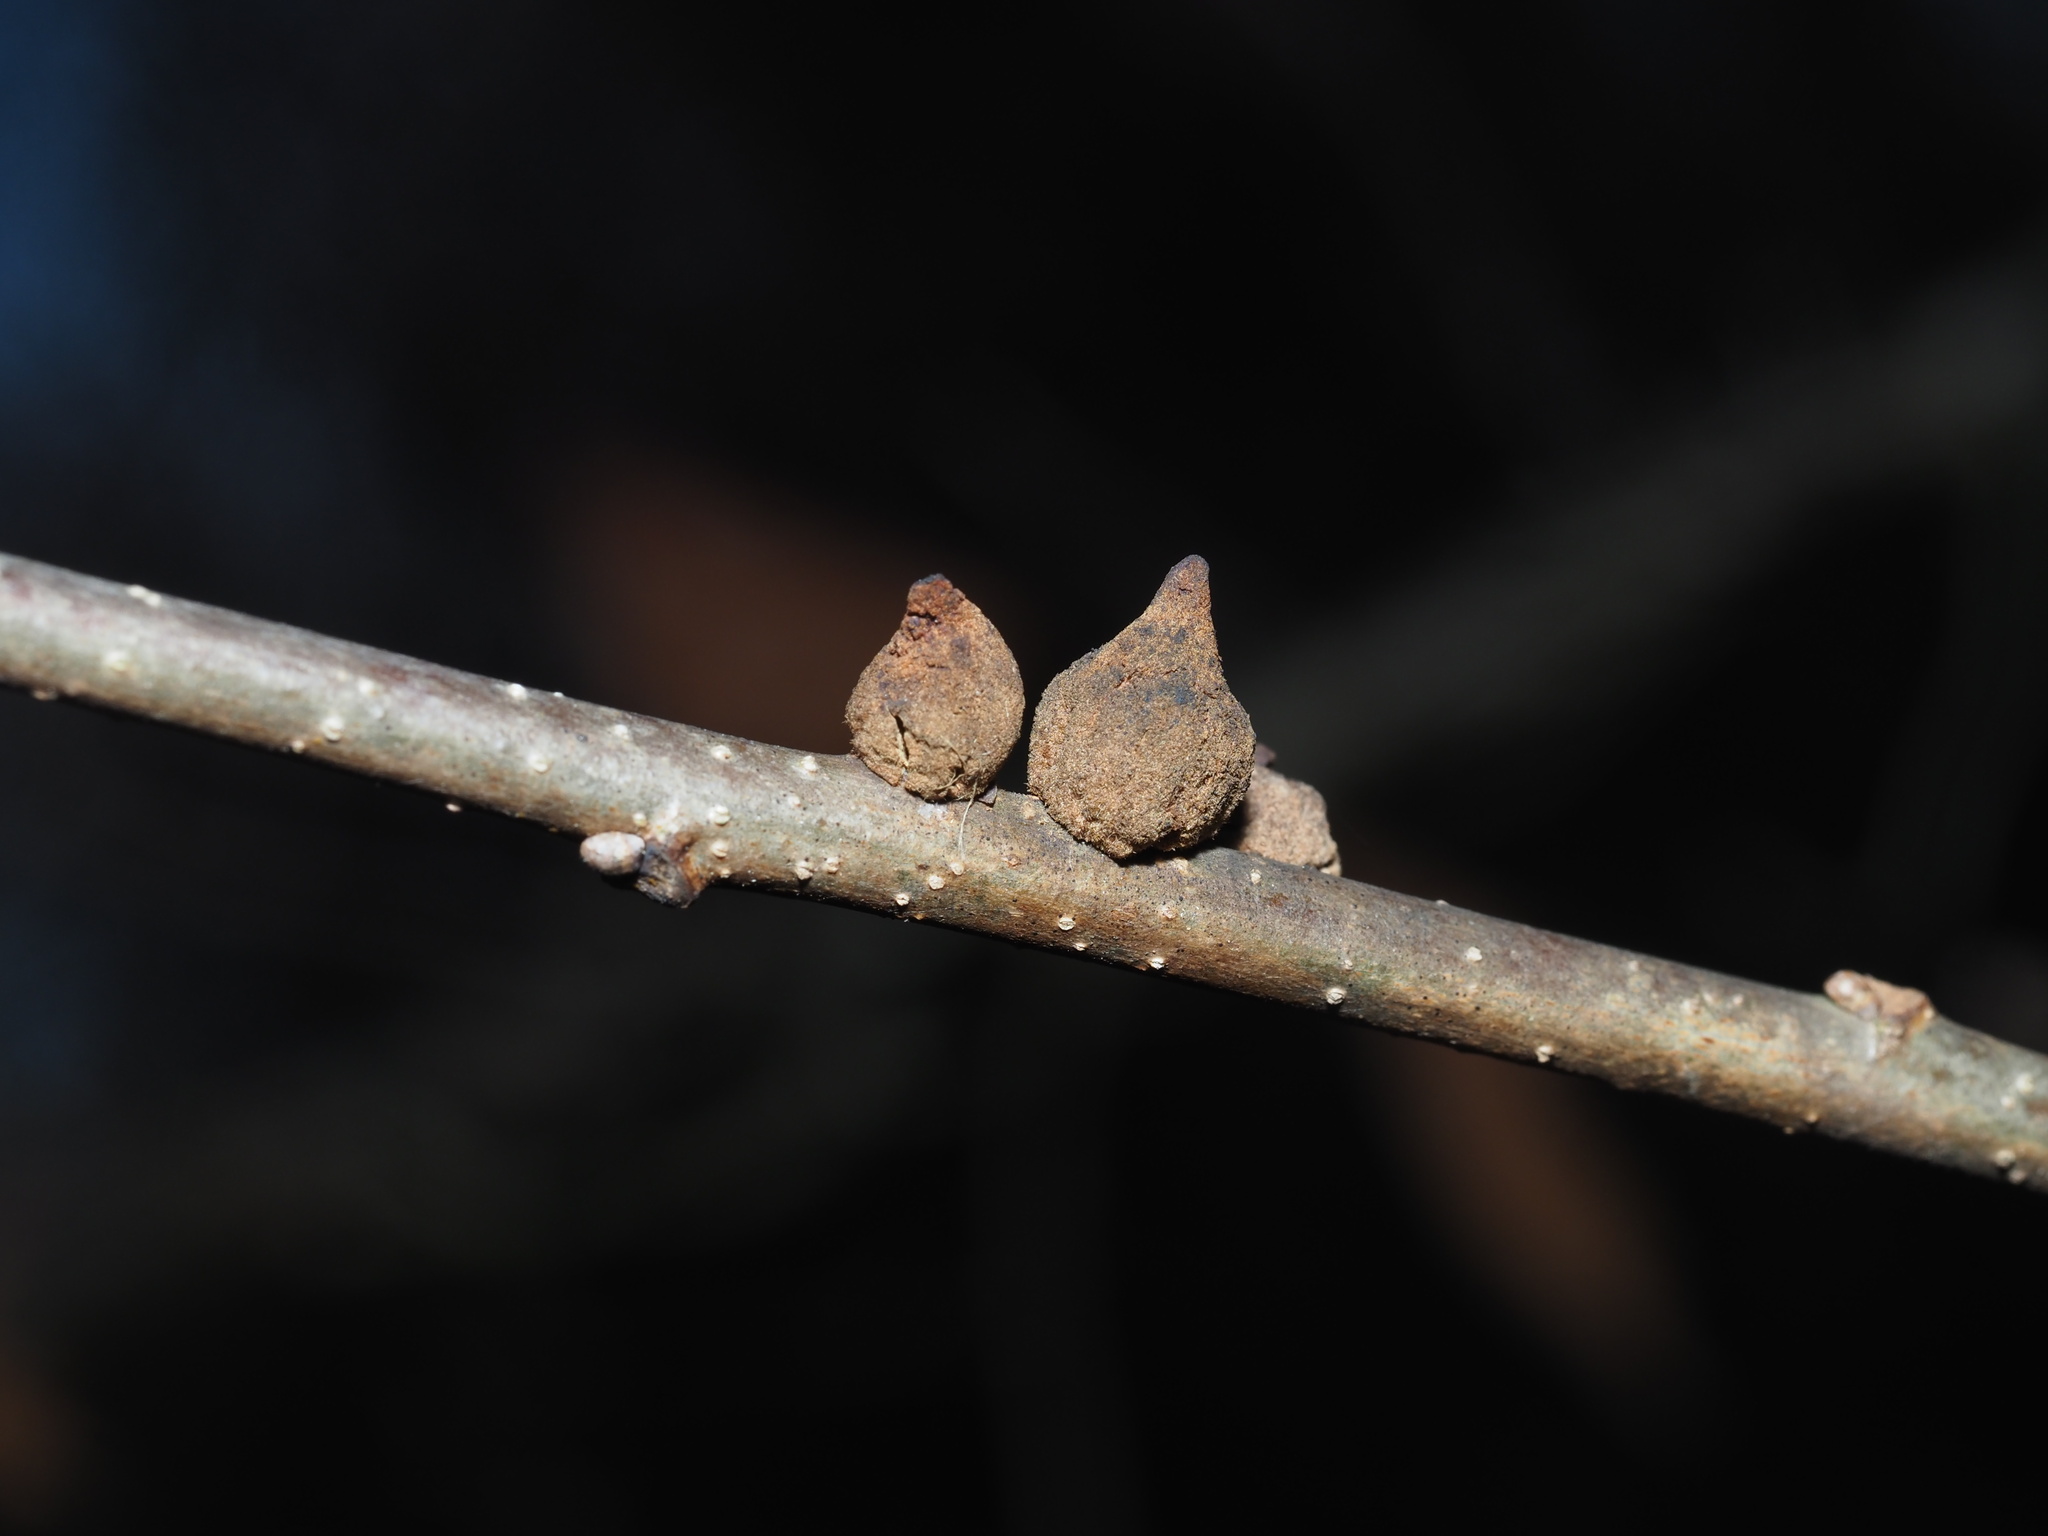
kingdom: Animalia
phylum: Arthropoda
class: Insecta
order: Hymenoptera
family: Cynipidae
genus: Disholcaspis
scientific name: Disholcaspis
